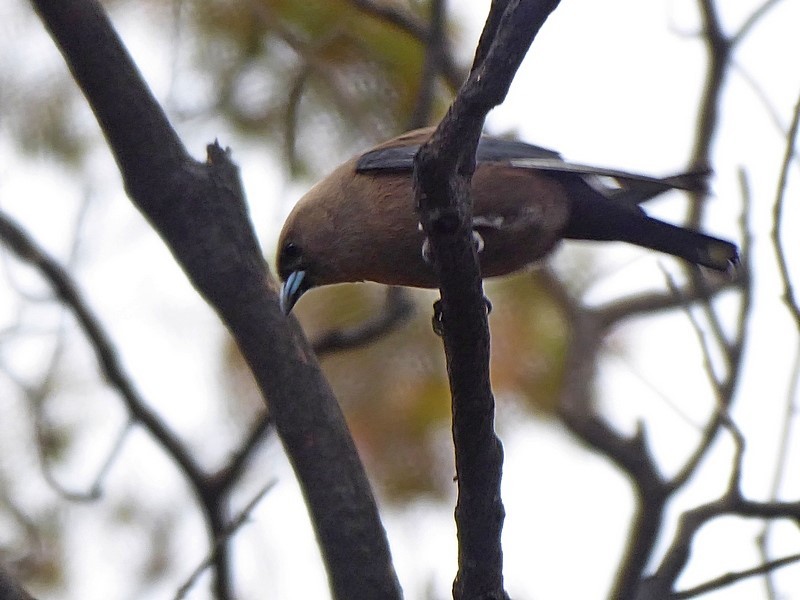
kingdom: Animalia
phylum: Chordata
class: Aves
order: Passeriformes
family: Artamidae
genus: Artamus
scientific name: Artamus cyanopterus
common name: Dusky woodswallow
